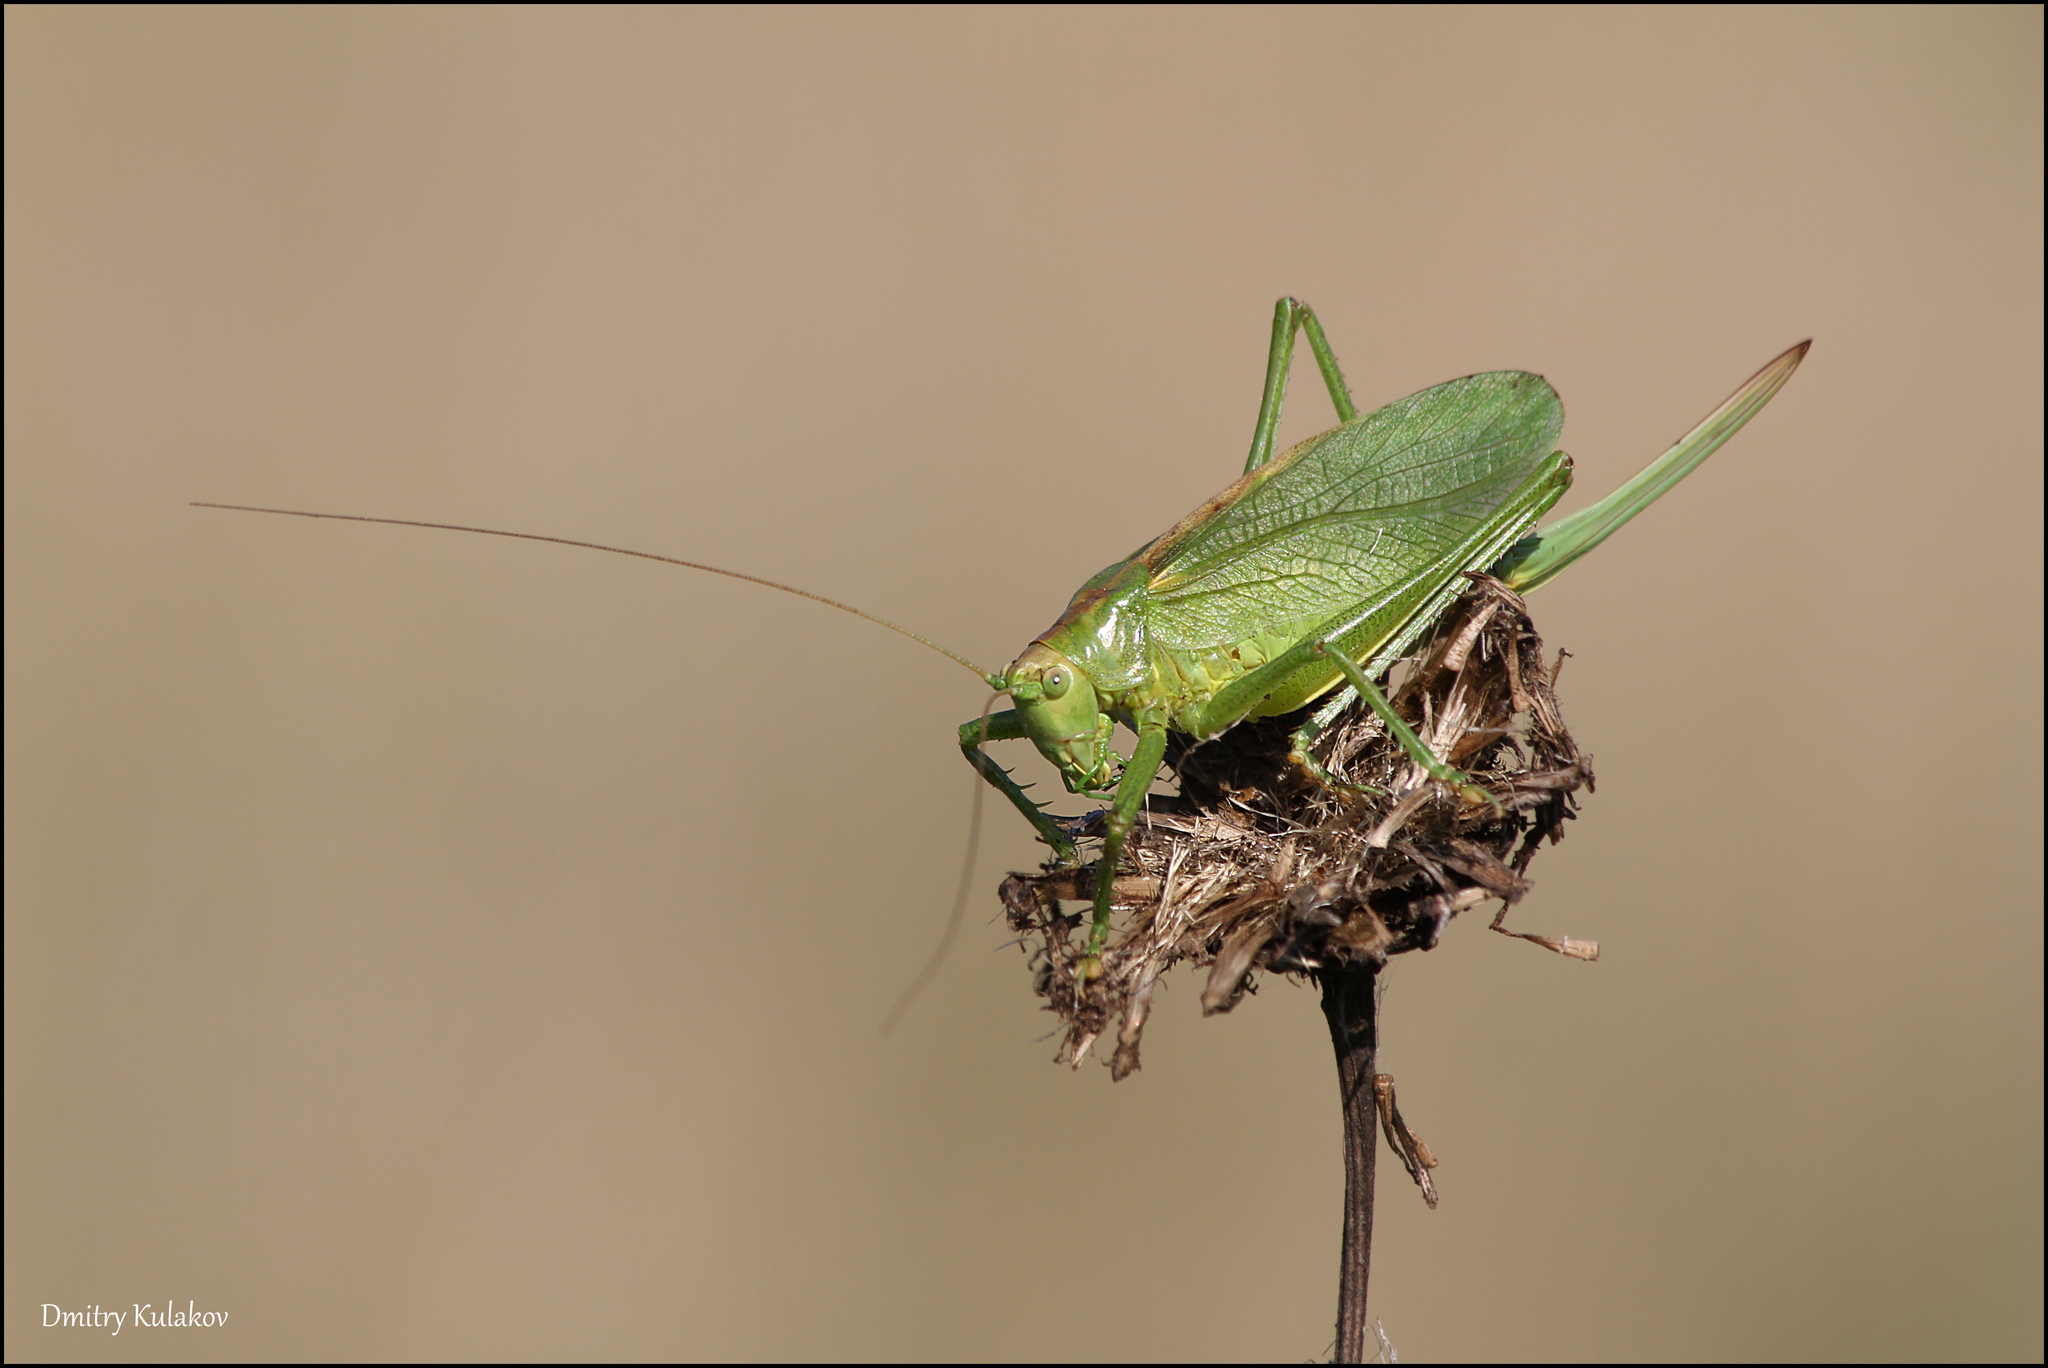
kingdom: Animalia
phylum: Arthropoda
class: Insecta
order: Orthoptera
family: Tettigoniidae
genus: Tettigonia
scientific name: Tettigonia cantans
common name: Upland green bush-cricket
